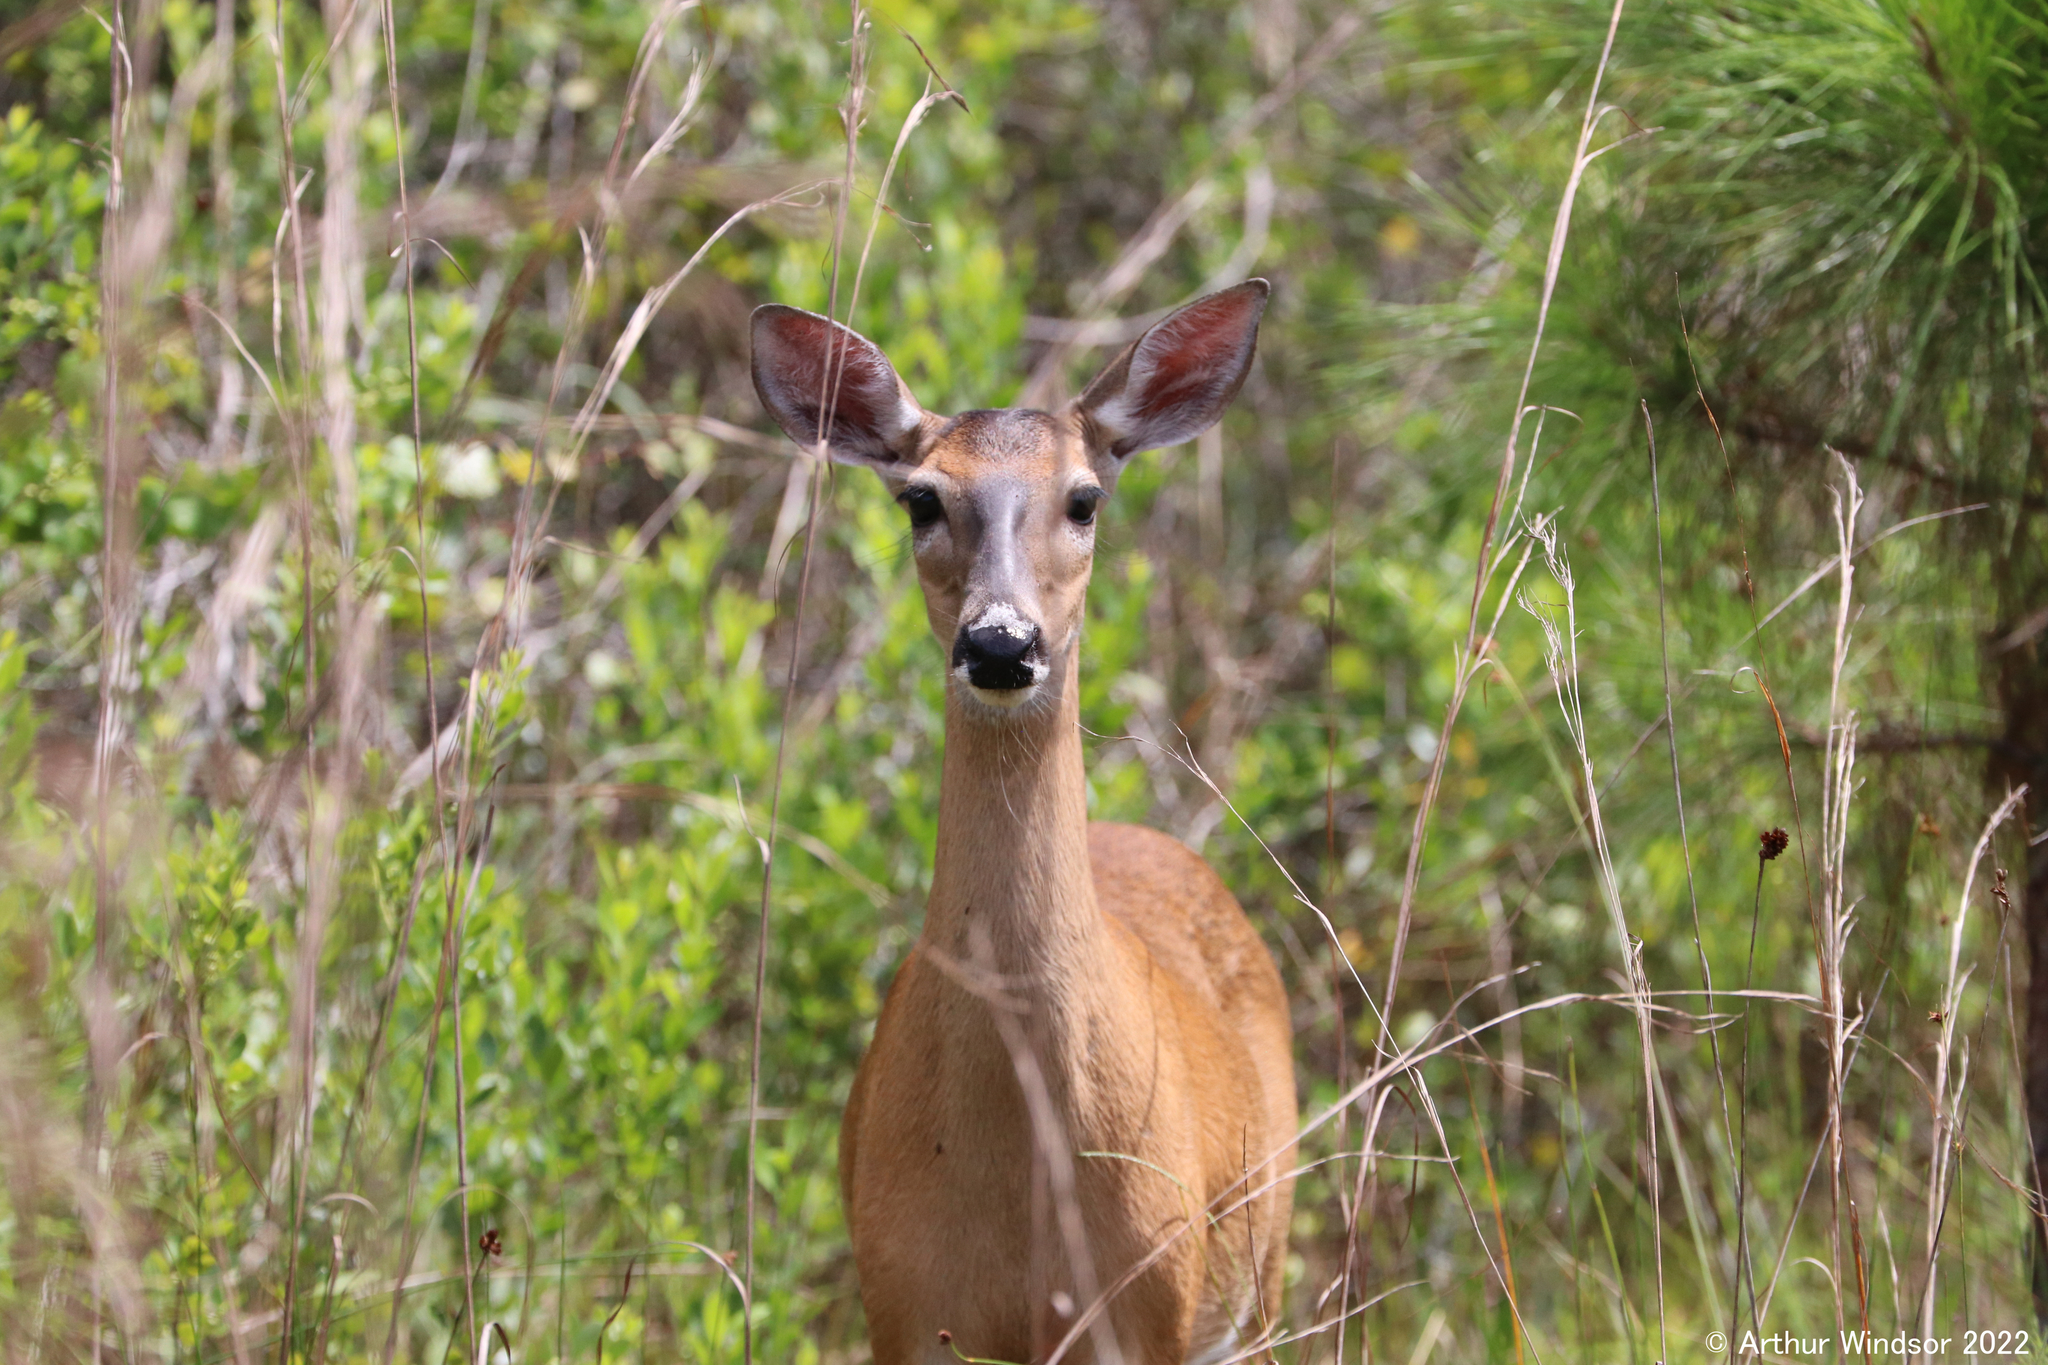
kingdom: Animalia
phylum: Chordata
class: Mammalia
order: Artiodactyla
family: Cervidae
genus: Odocoileus
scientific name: Odocoileus virginianus
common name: White-tailed deer
